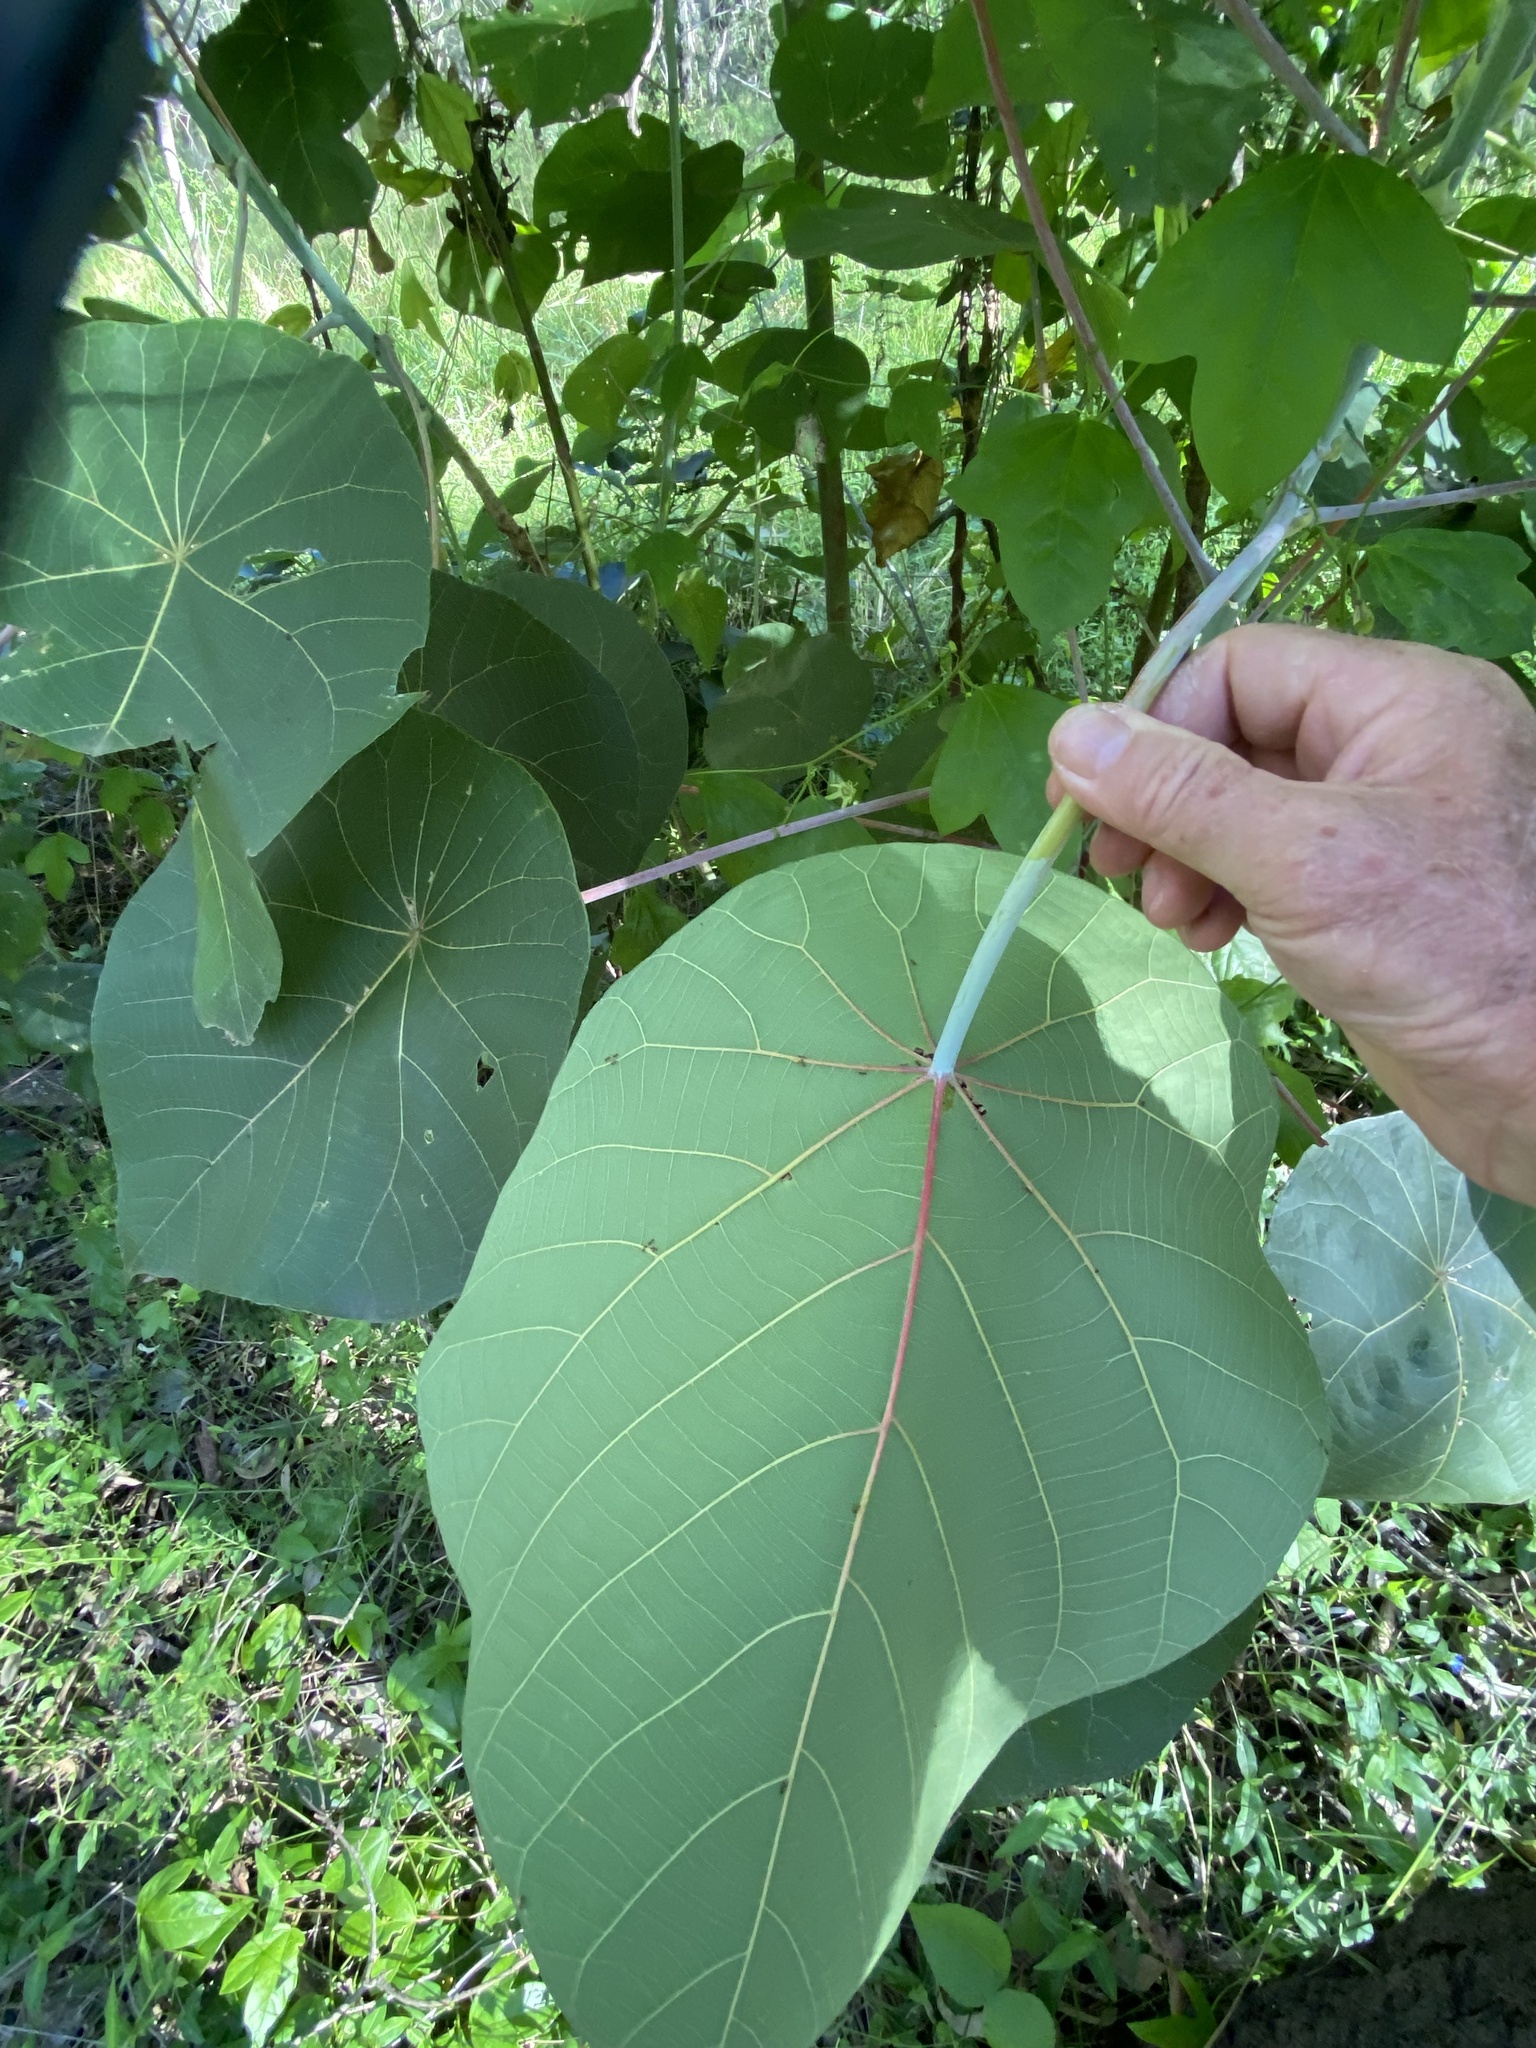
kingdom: Plantae
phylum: Tracheophyta
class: Magnoliopsida
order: Malpighiales
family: Euphorbiaceae
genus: Macaranga
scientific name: Macaranga tanarius
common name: Parasol leaf tree
